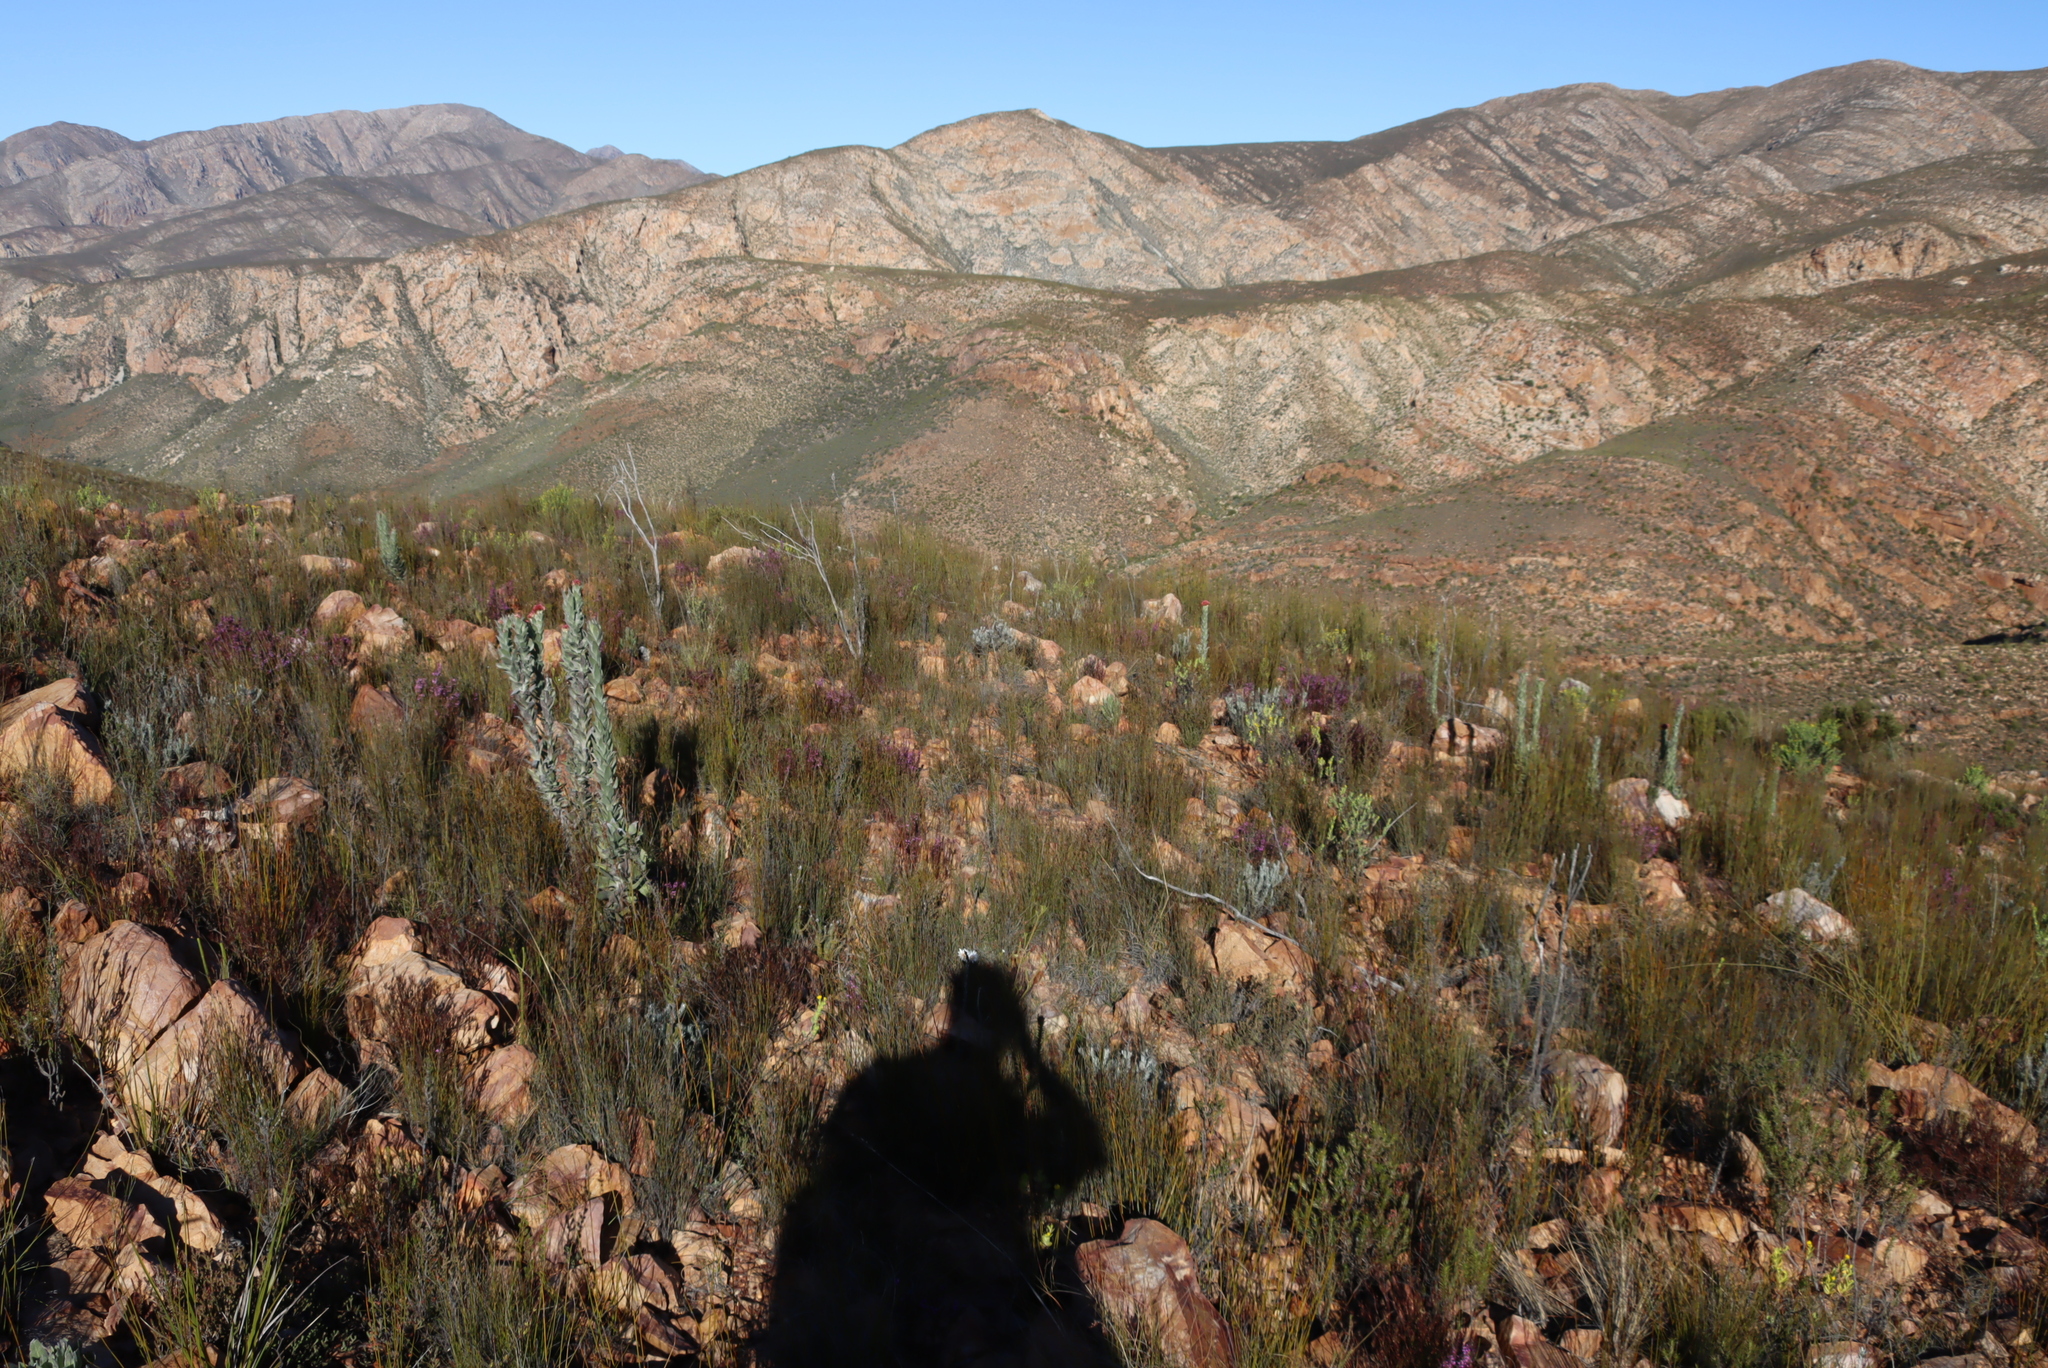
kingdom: Plantae
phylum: Tracheophyta
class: Magnoliopsida
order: Asterales
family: Asteraceae
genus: Syncarpha
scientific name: Syncarpha milleflora
